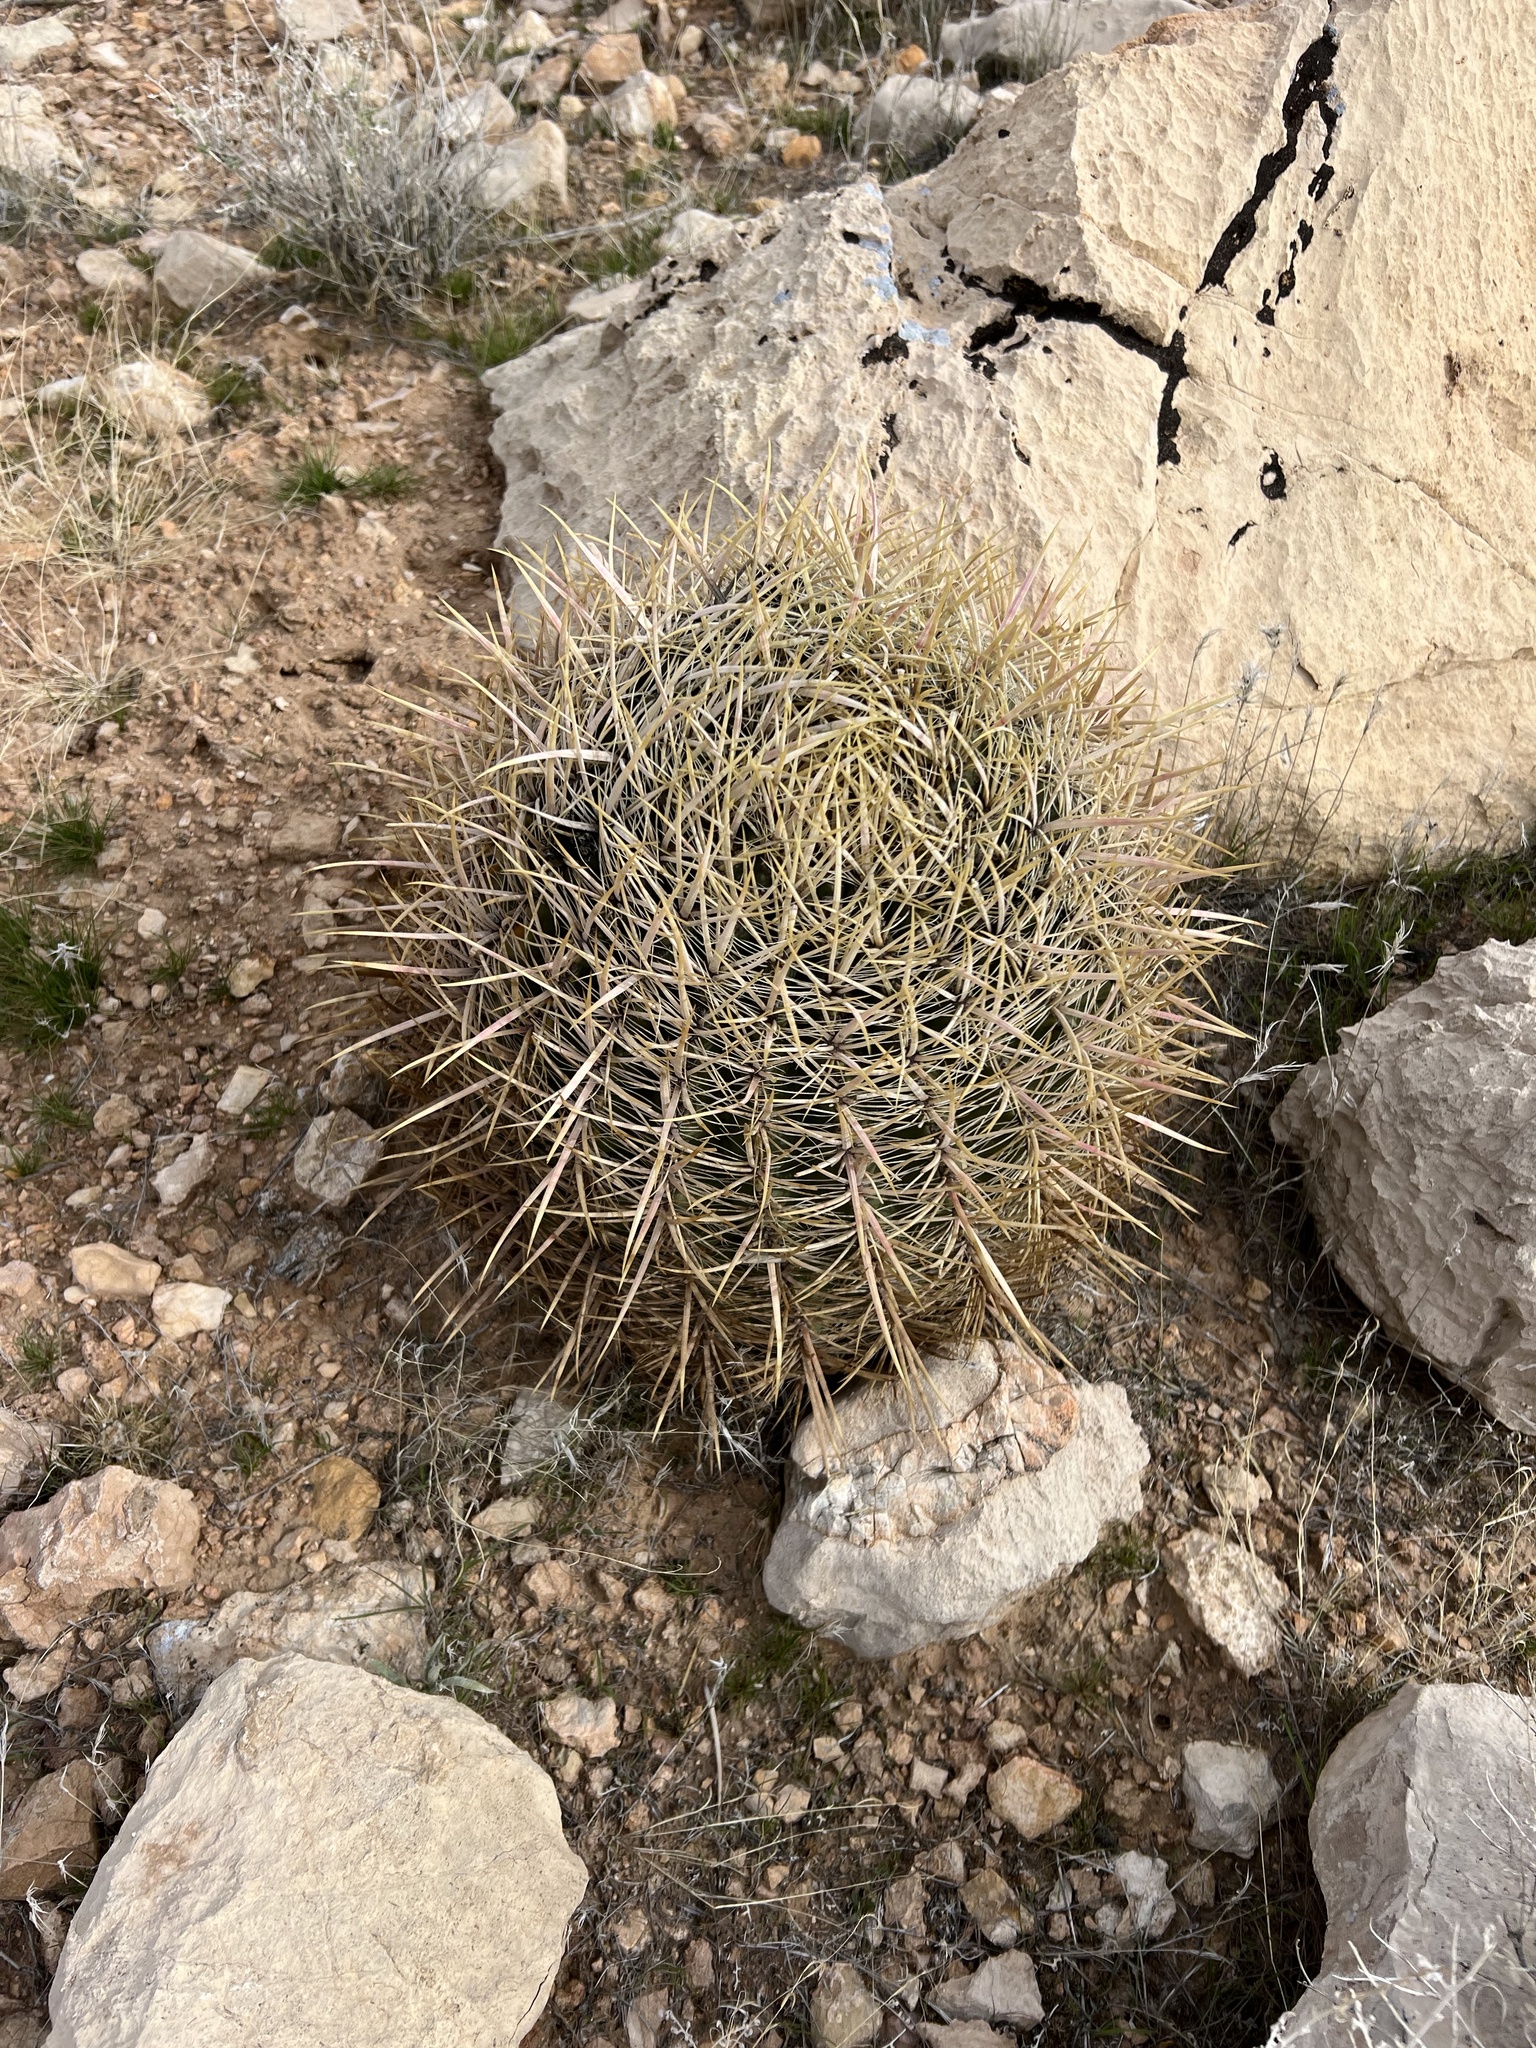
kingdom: Plantae
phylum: Tracheophyta
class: Magnoliopsida
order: Caryophyllales
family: Cactaceae
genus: Ferocactus
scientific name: Ferocactus cylindraceus
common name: California barrel cactus
